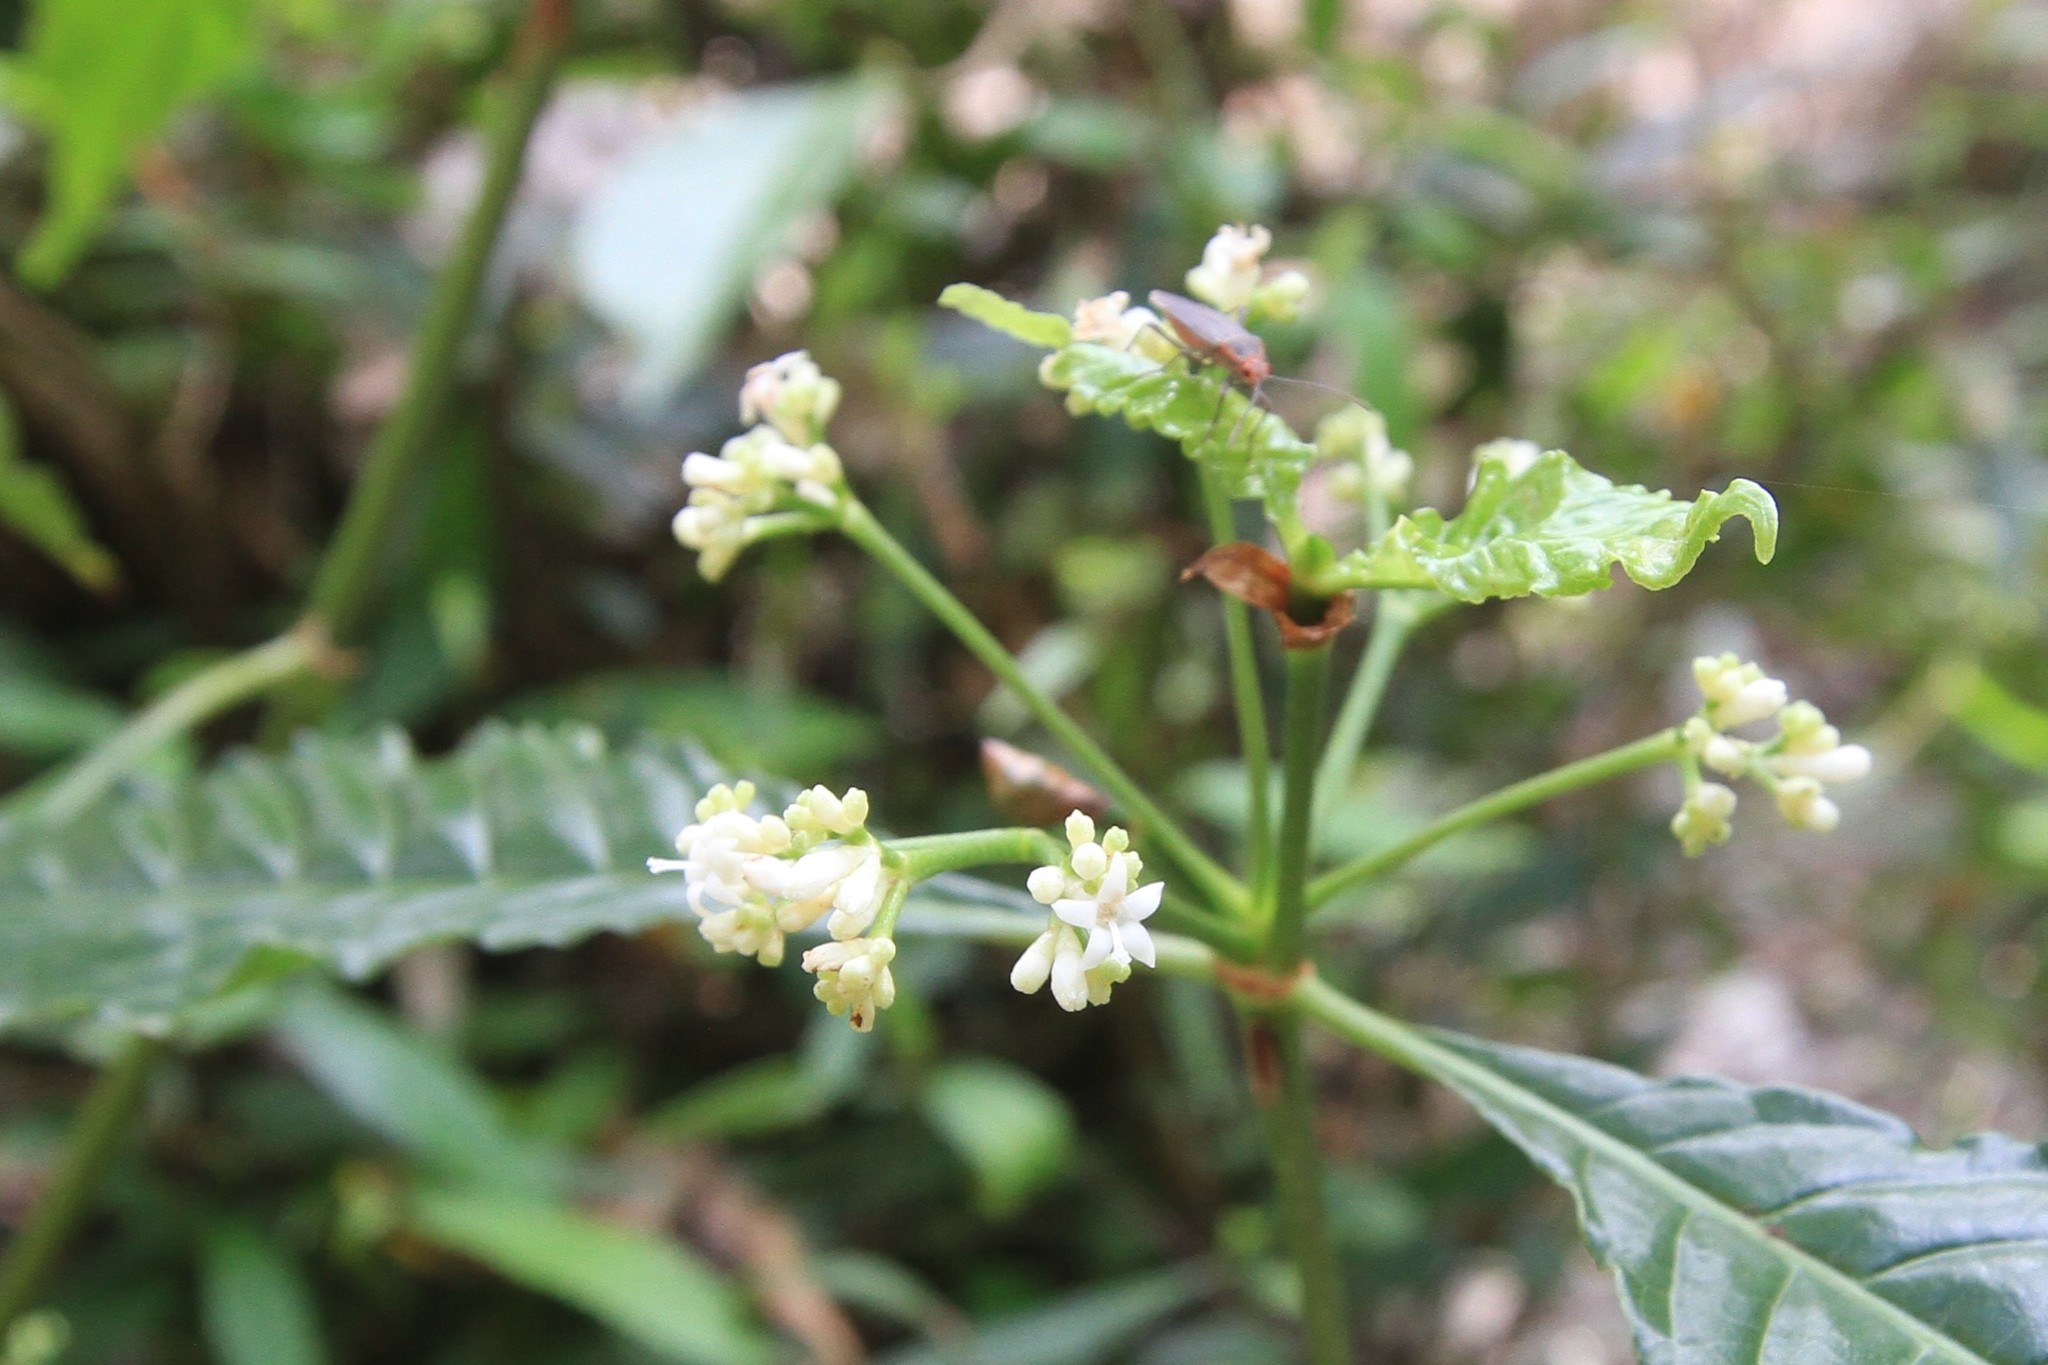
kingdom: Plantae
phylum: Tracheophyta
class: Magnoliopsida
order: Gentianales
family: Rubiaceae
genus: Psychotria
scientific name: Psychotria nervosa
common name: Bastard cankerberry
